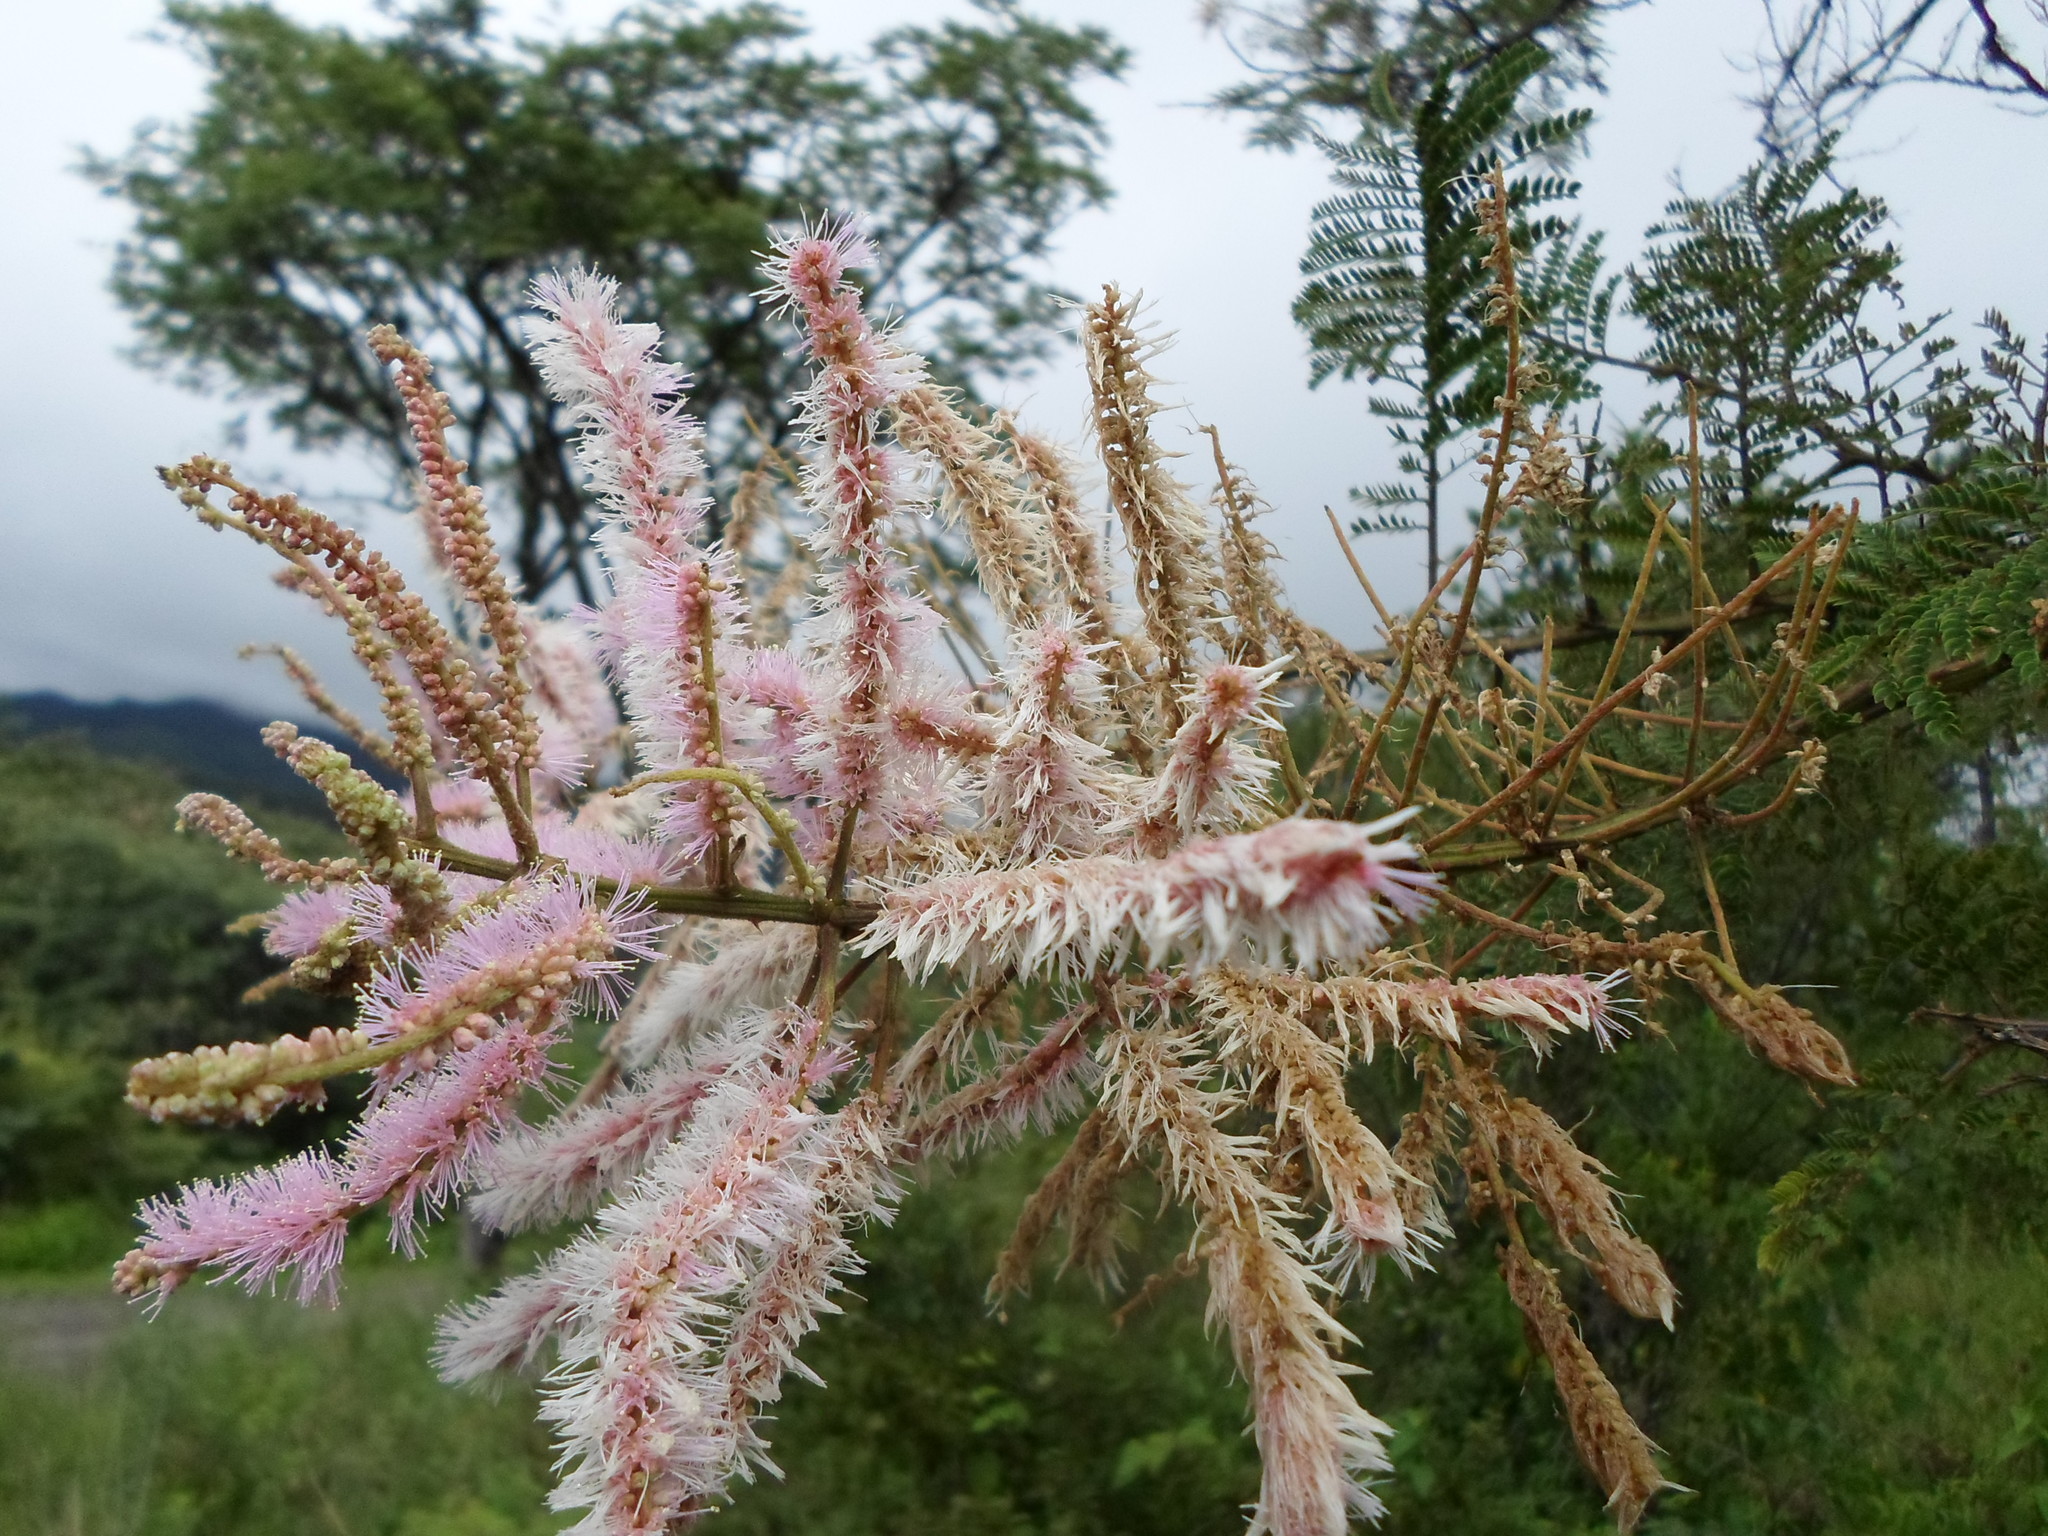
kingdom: Plantae
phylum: Tracheophyta
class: Magnoliopsida
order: Fabales
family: Fabaceae
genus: Mimosa
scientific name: Mimosa benthamii
